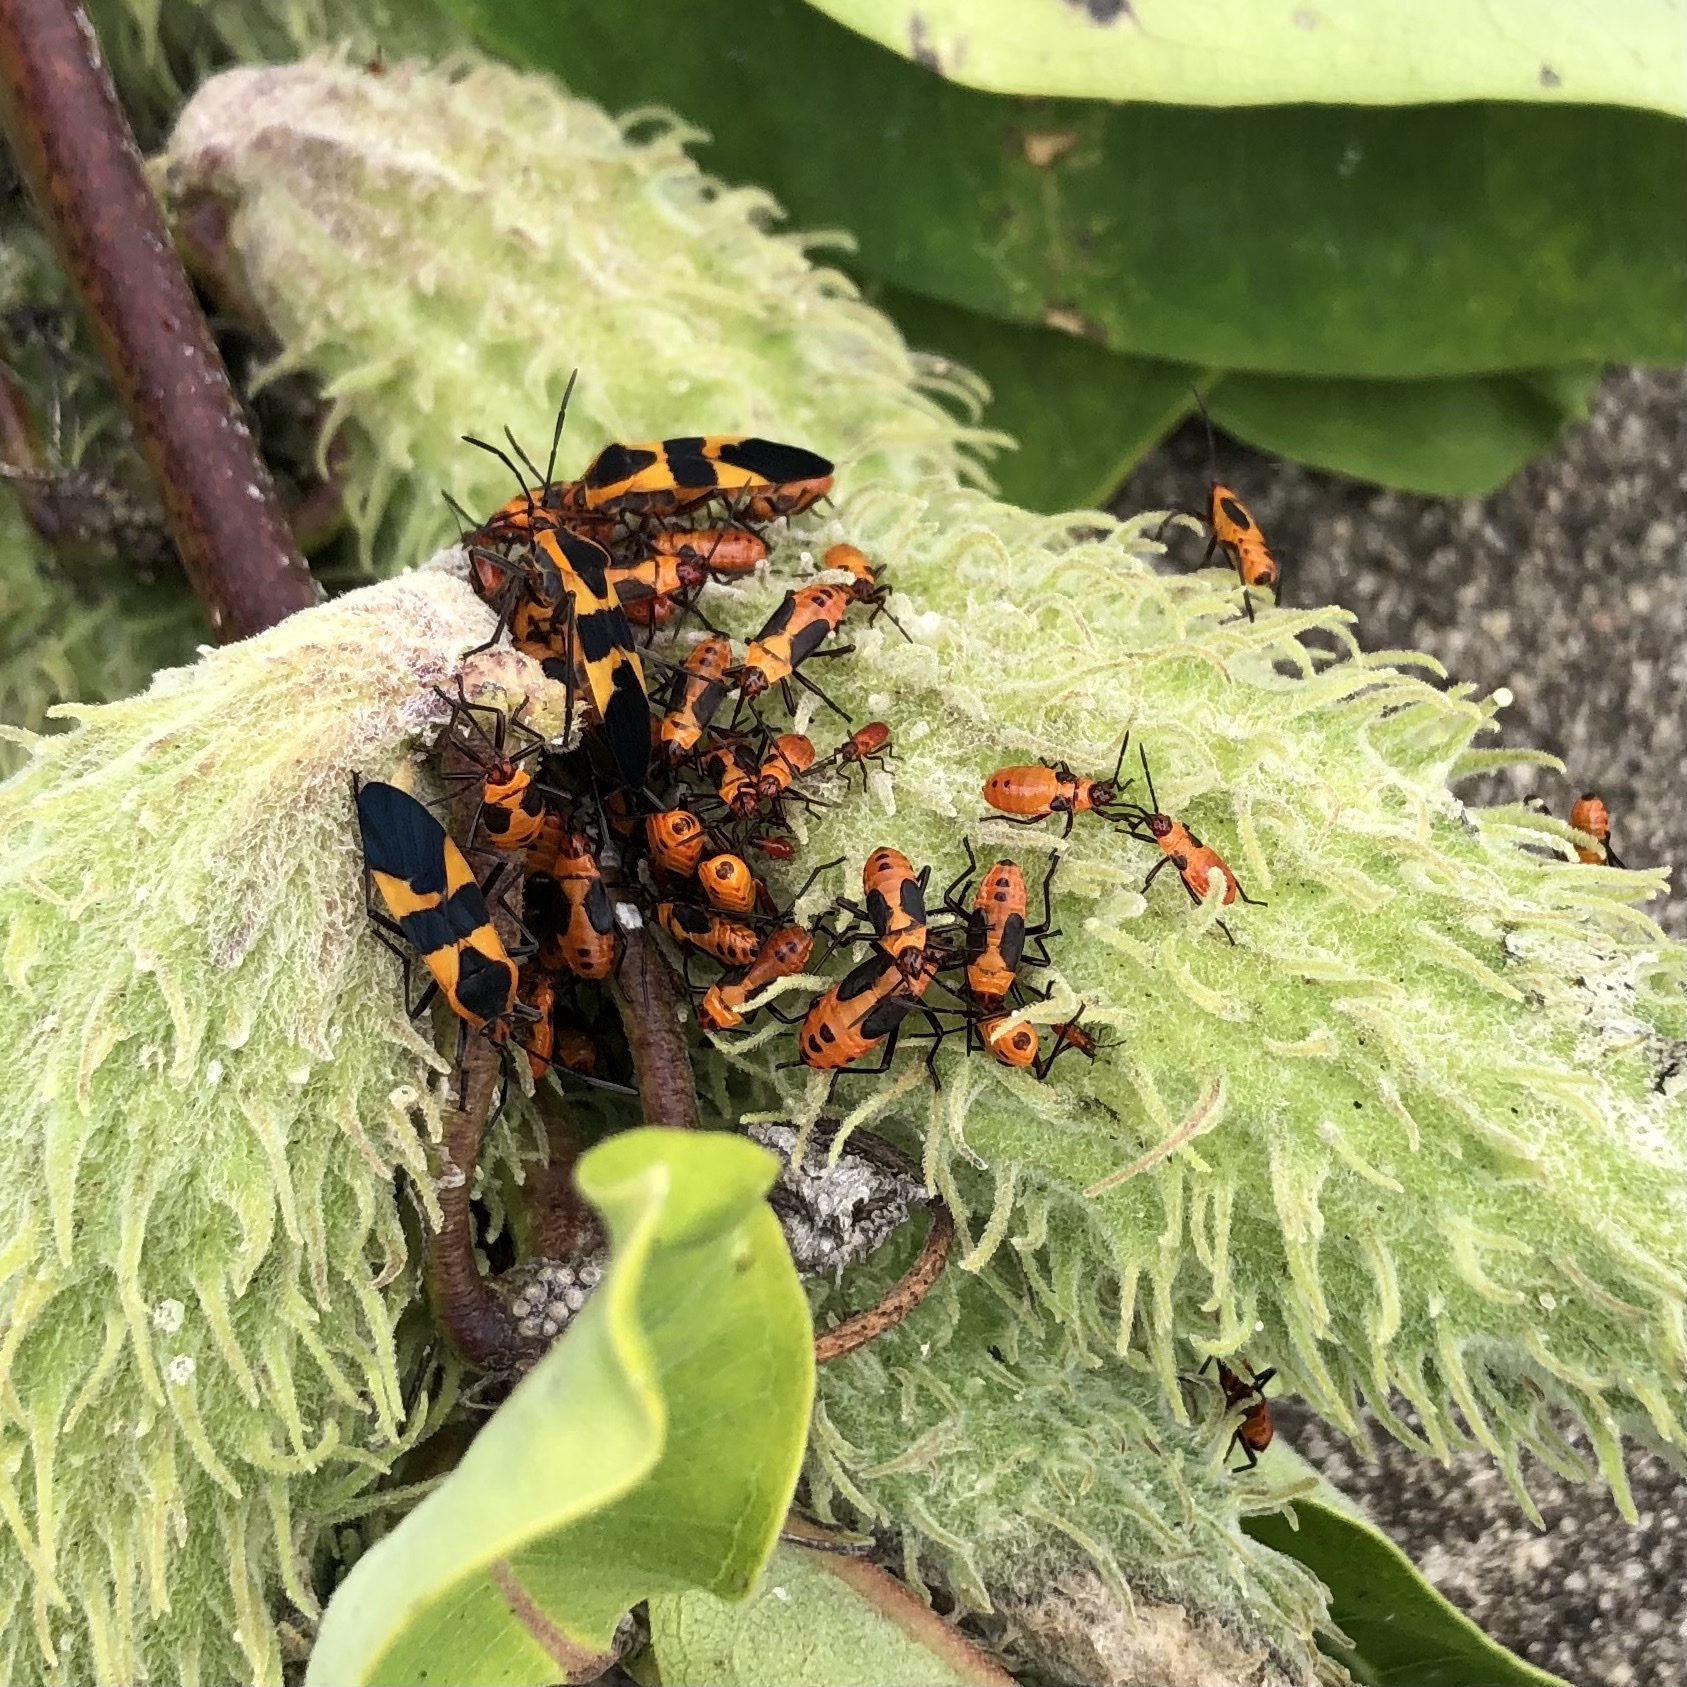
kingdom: Animalia
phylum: Arthropoda
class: Insecta
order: Hemiptera
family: Lygaeidae
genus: Oncopeltus
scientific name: Oncopeltus fasciatus
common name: Large milkweed bug
